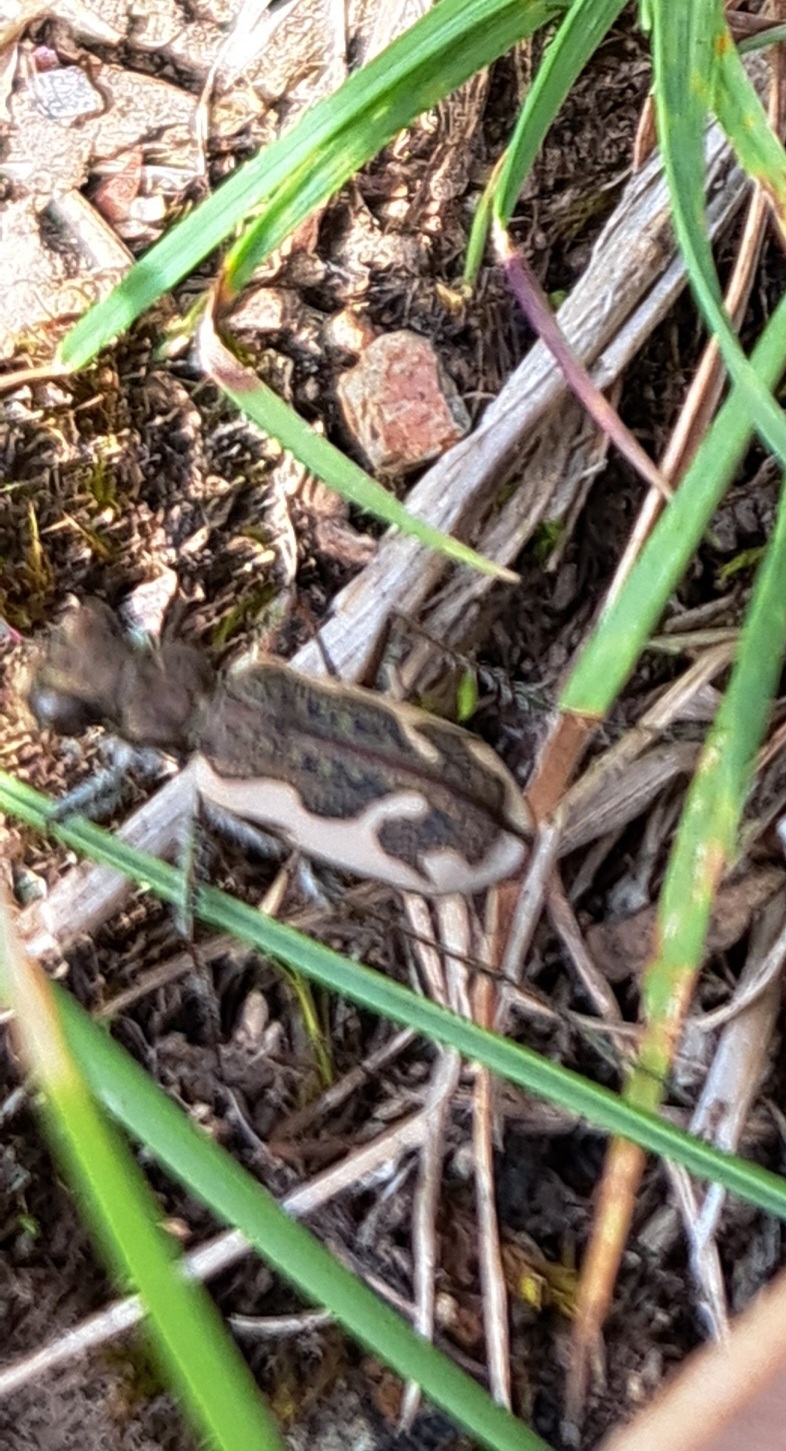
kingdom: Animalia
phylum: Arthropoda
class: Insecta
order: Coleoptera
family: Carabidae
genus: Neocicindela
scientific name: Neocicindela tuberculata
